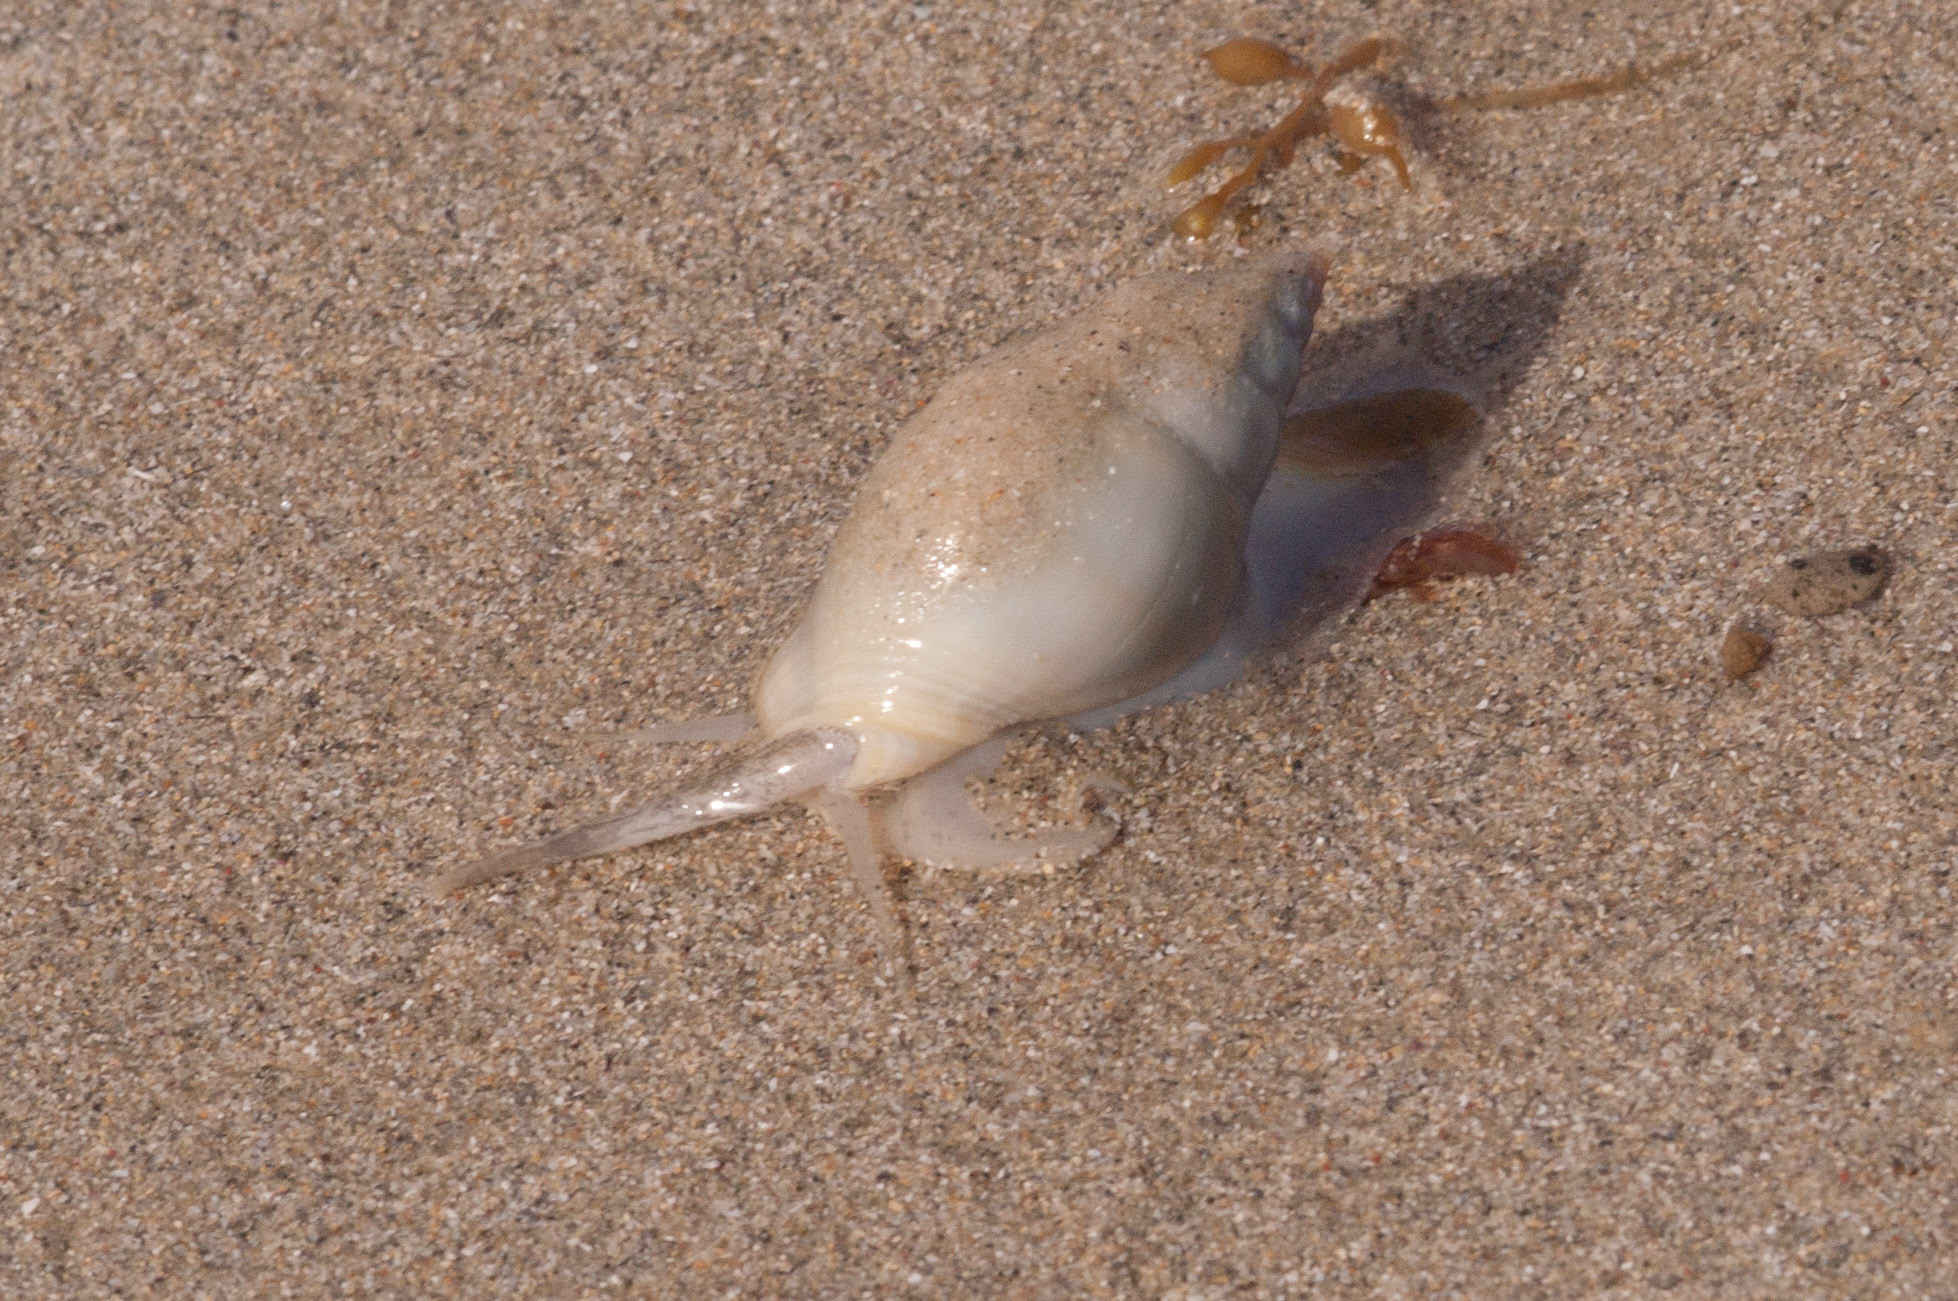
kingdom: Animalia
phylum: Mollusca
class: Gastropoda
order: Neogastropoda
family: Nassariidae
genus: Nassarius
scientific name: Nassarius dorsatus
